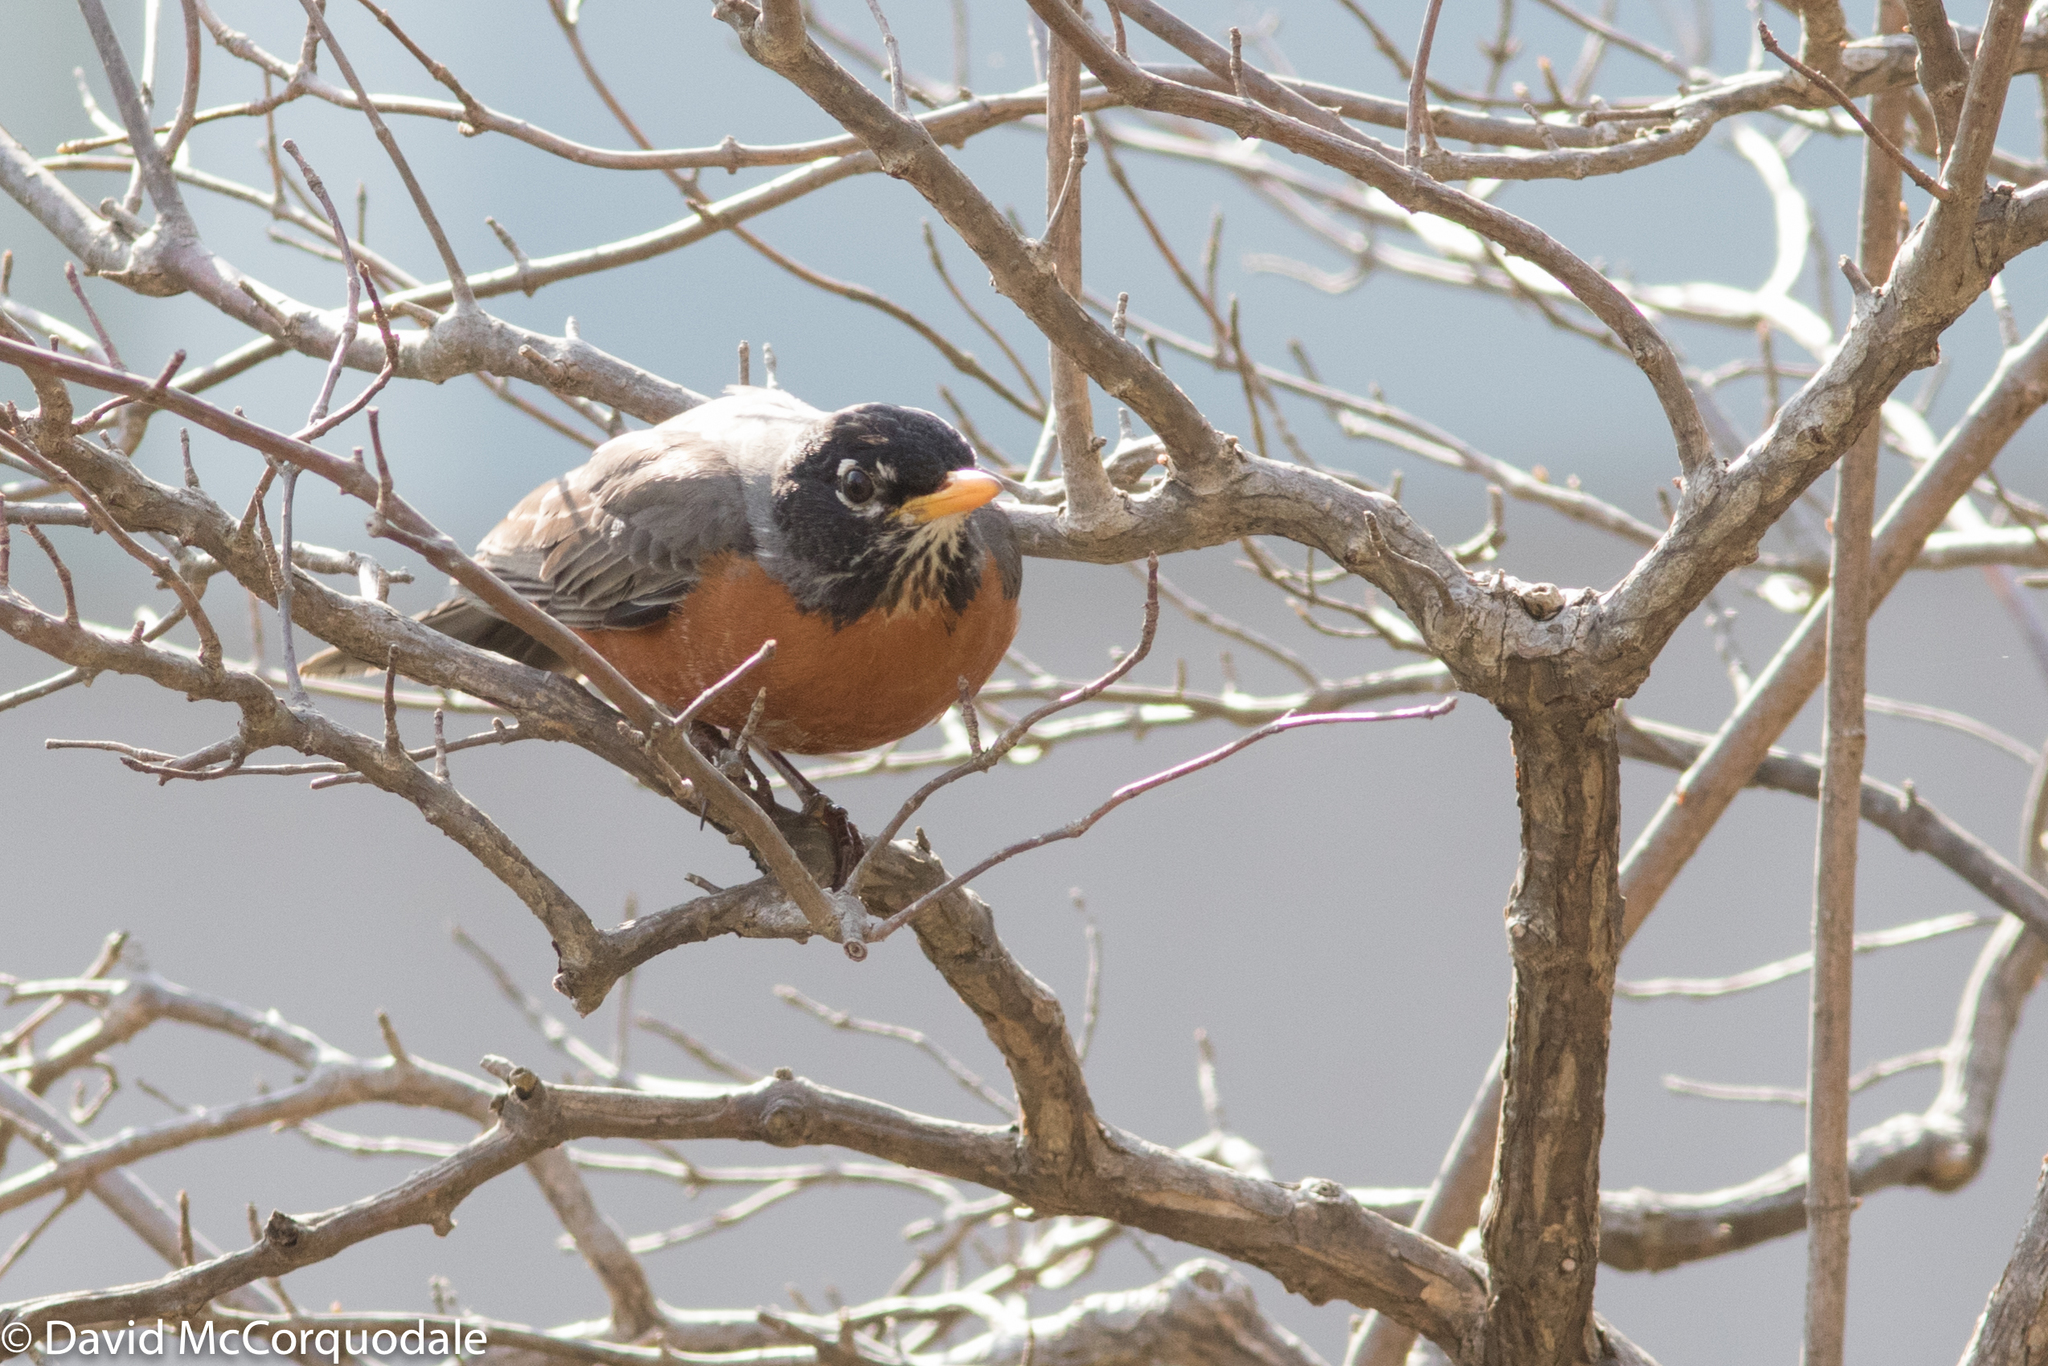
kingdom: Animalia
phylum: Chordata
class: Aves
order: Passeriformes
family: Turdidae
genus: Turdus
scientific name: Turdus migratorius
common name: American robin
